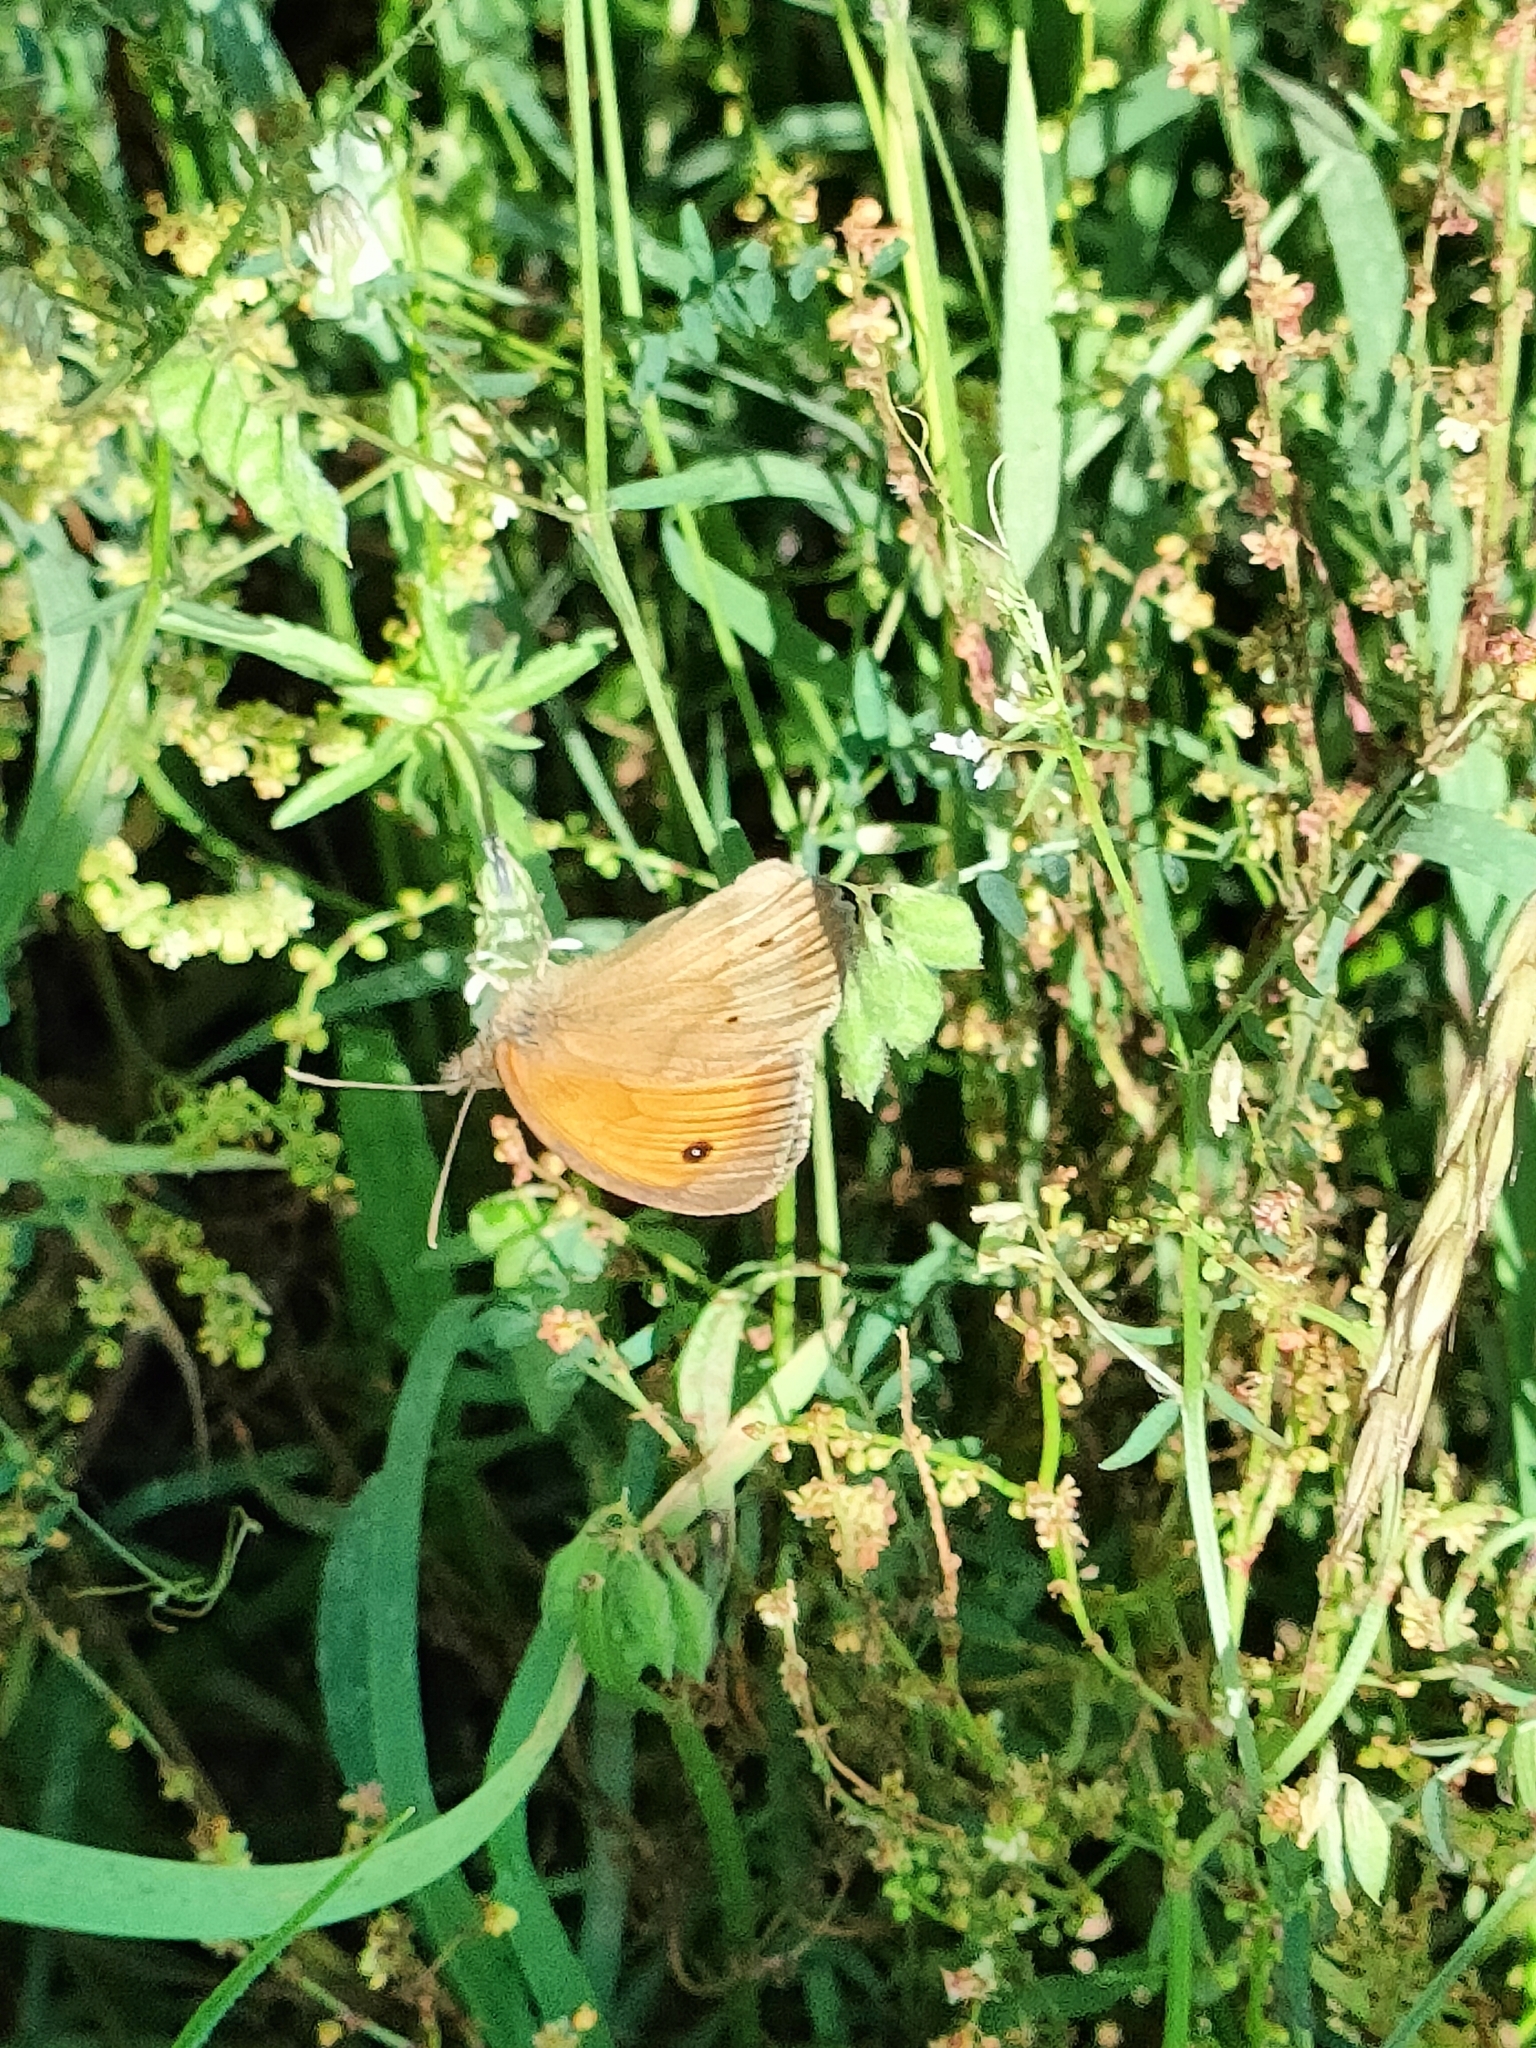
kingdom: Animalia
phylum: Arthropoda
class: Insecta
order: Lepidoptera
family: Nymphalidae
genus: Maniola
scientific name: Maniola jurtina
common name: Meadow brown
